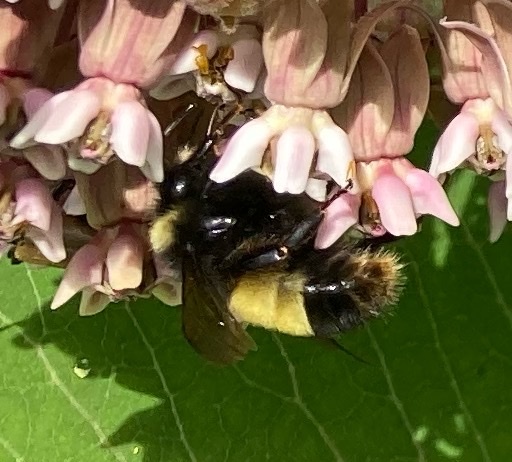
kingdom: Animalia
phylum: Arthropoda
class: Insecta
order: Hymenoptera
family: Apidae
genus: Bombus
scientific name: Bombus terricola
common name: Yellow-banded bumble bee
